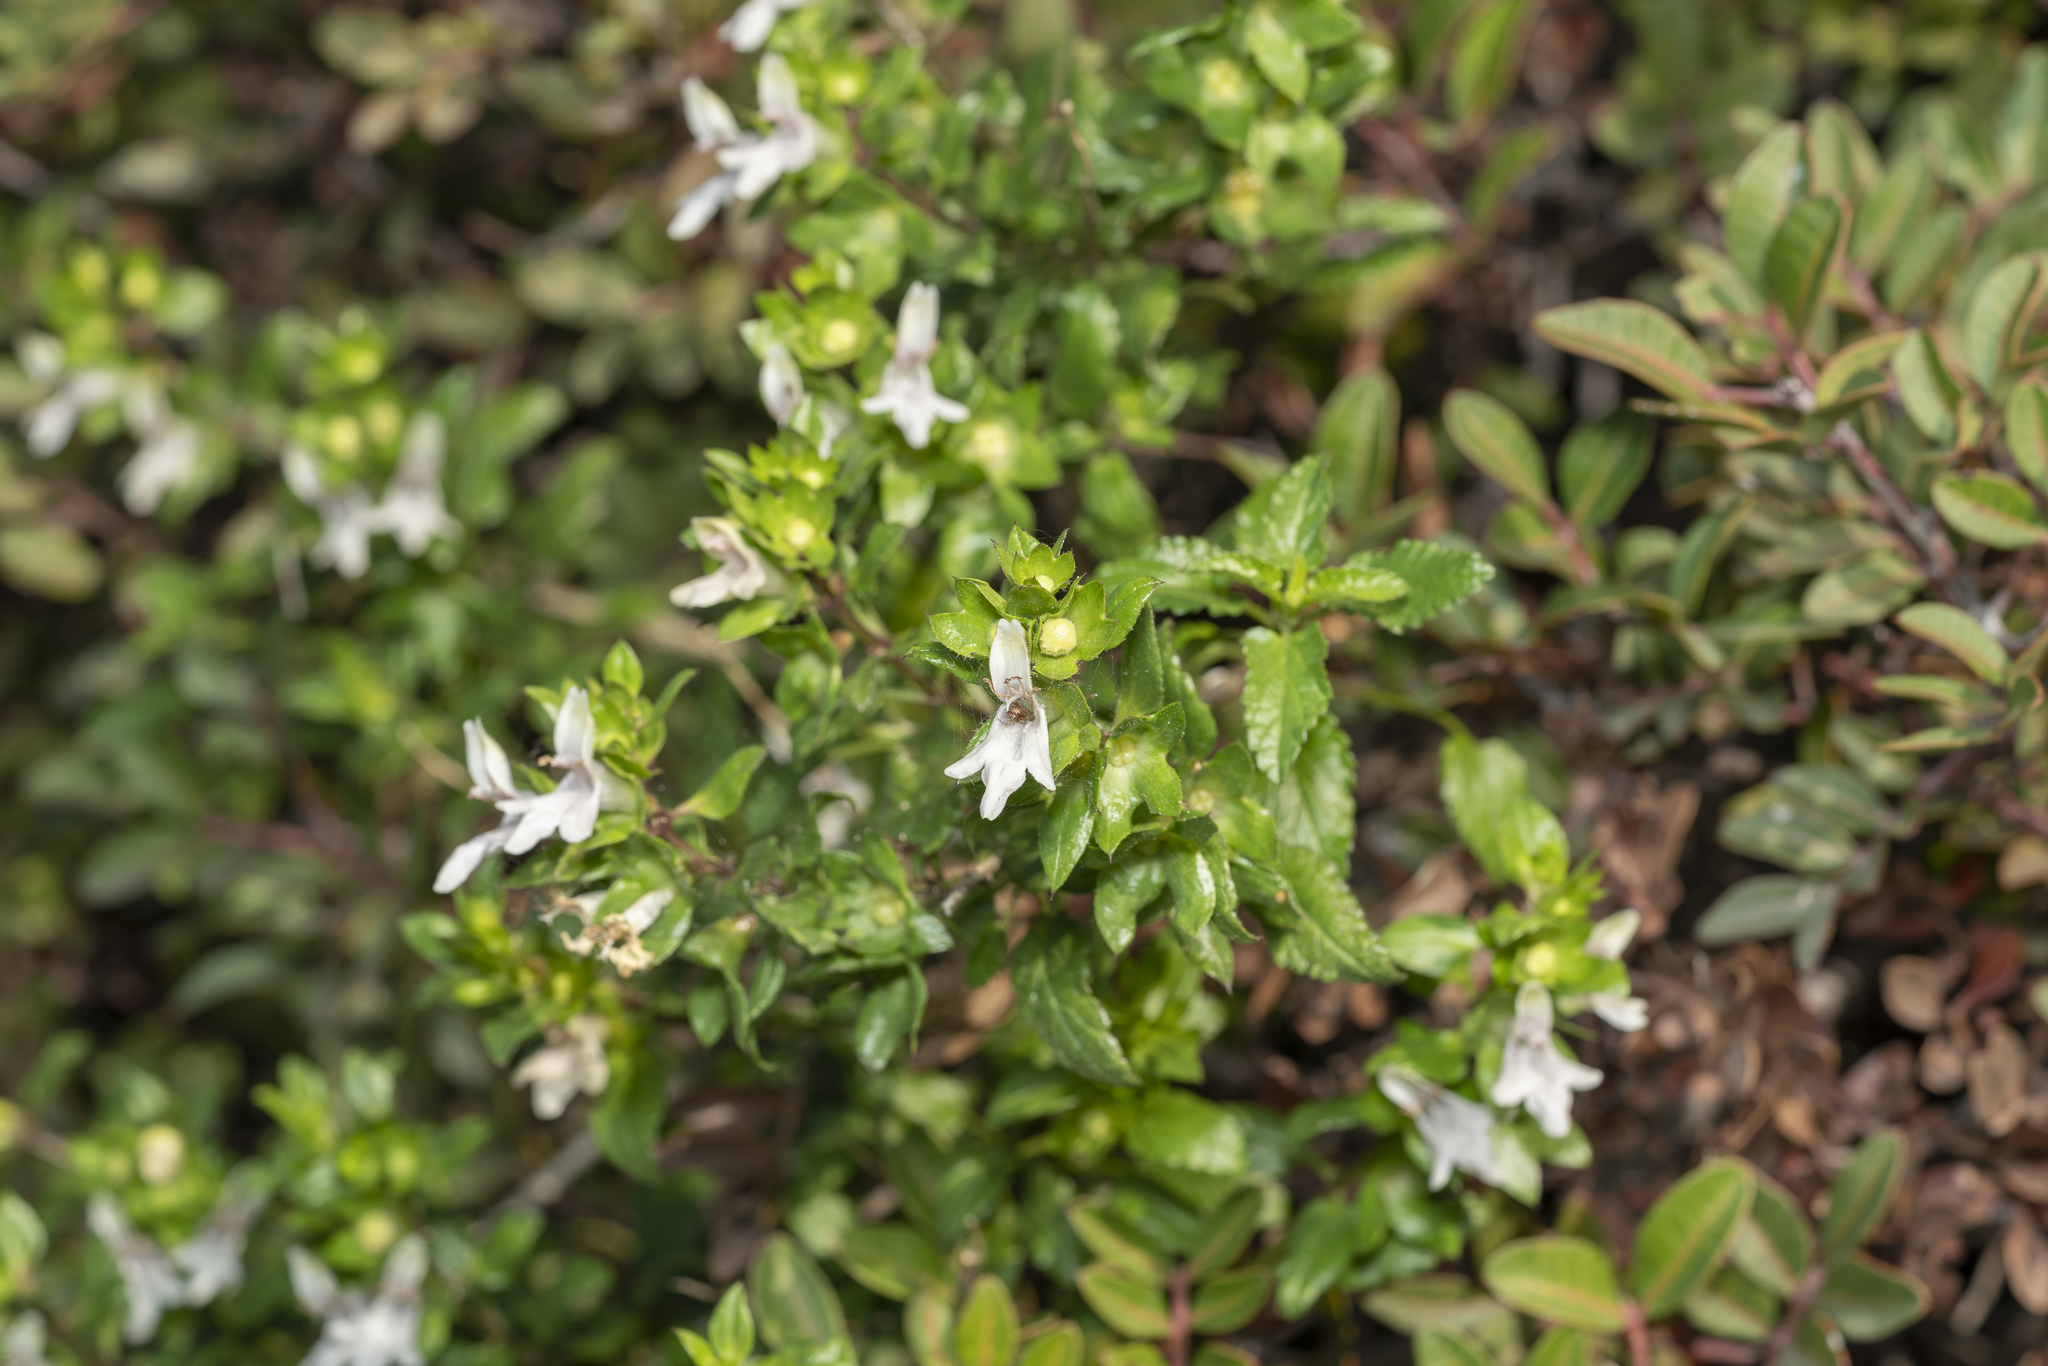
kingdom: Plantae
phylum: Tracheophyta
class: Magnoliopsida
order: Lamiales
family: Lamiaceae
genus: Prasium
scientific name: Prasium majus
